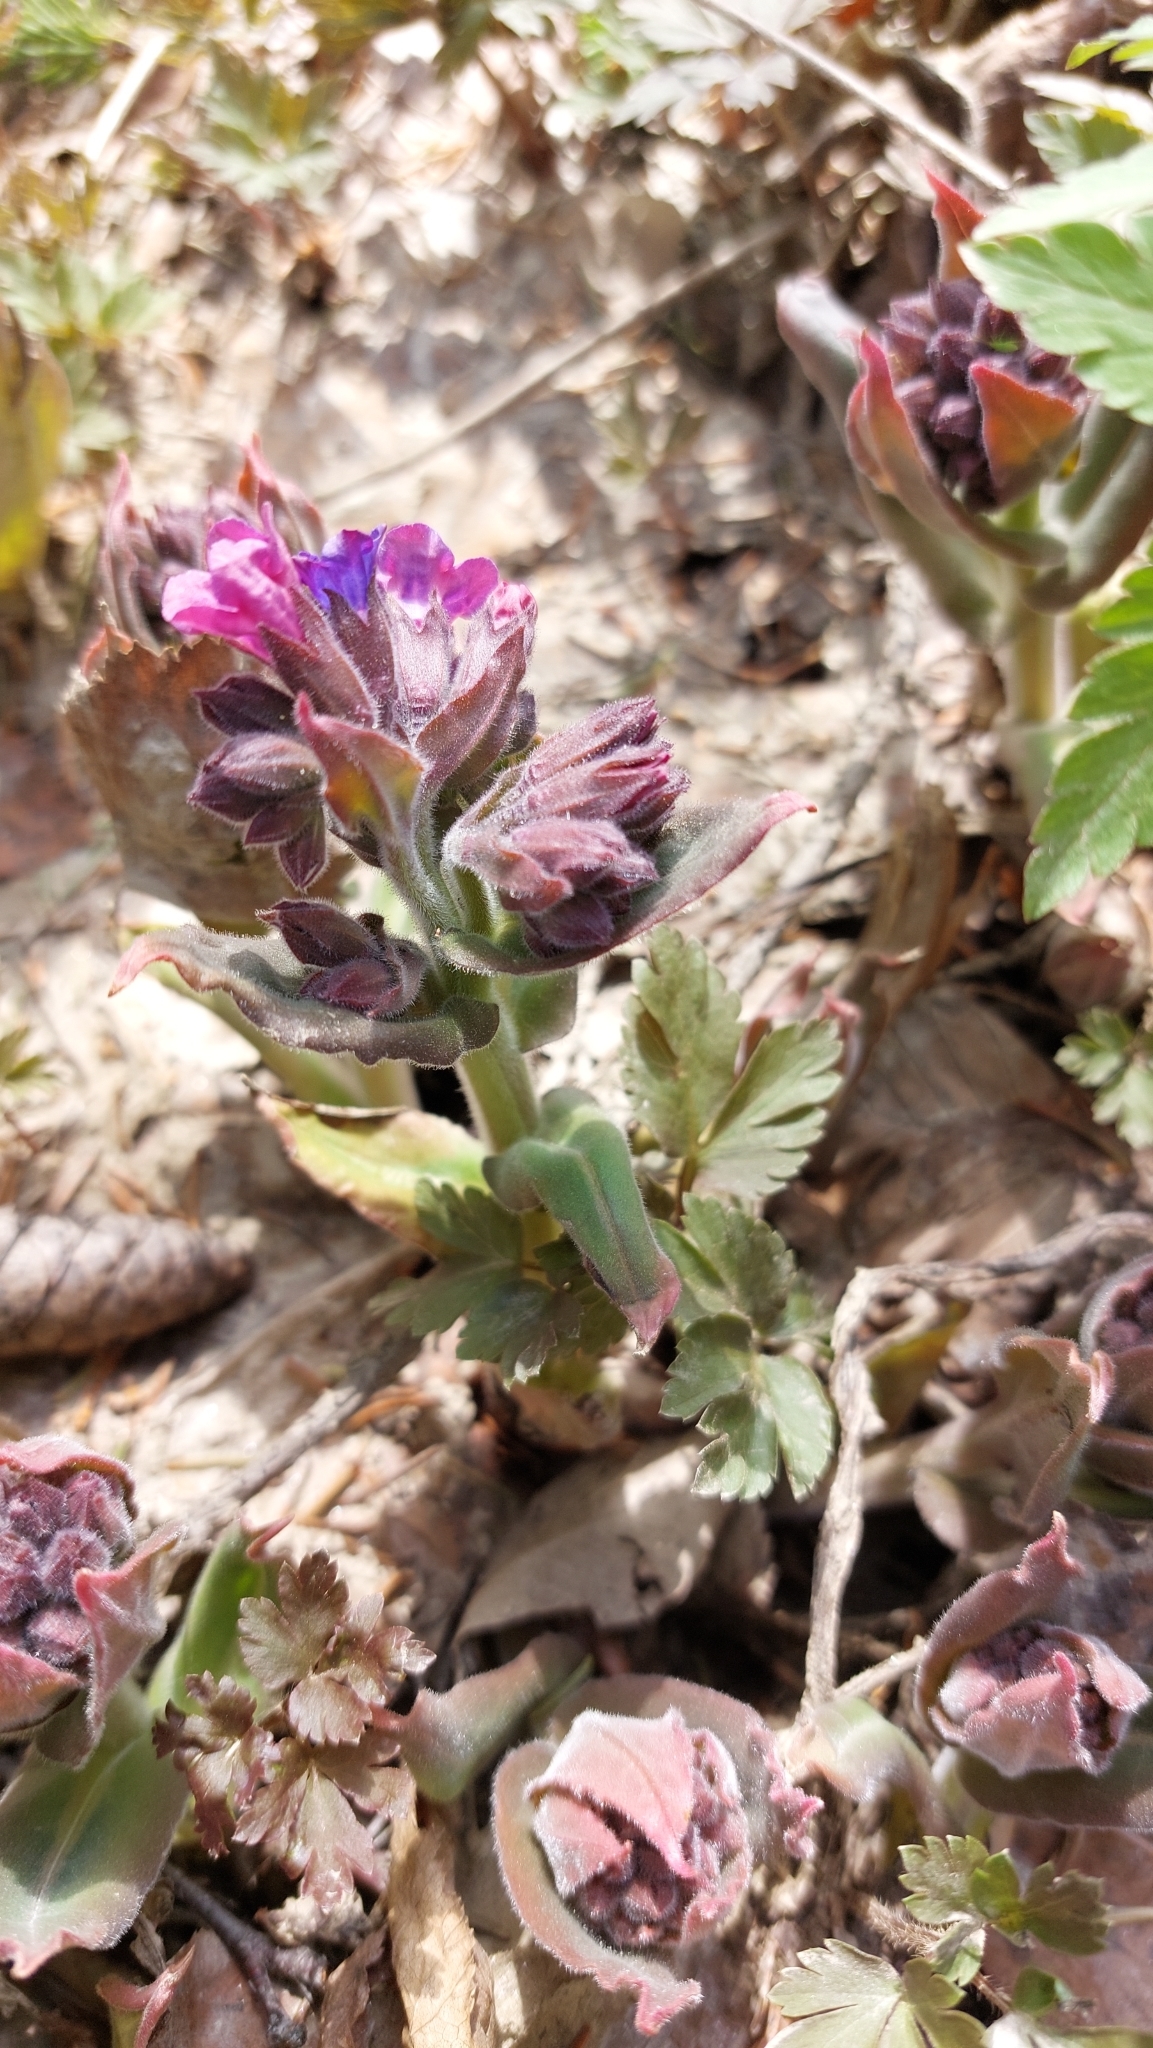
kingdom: Plantae
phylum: Tracheophyta
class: Magnoliopsida
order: Boraginales
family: Boraginaceae
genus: Pulmonaria
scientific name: Pulmonaria mollis
